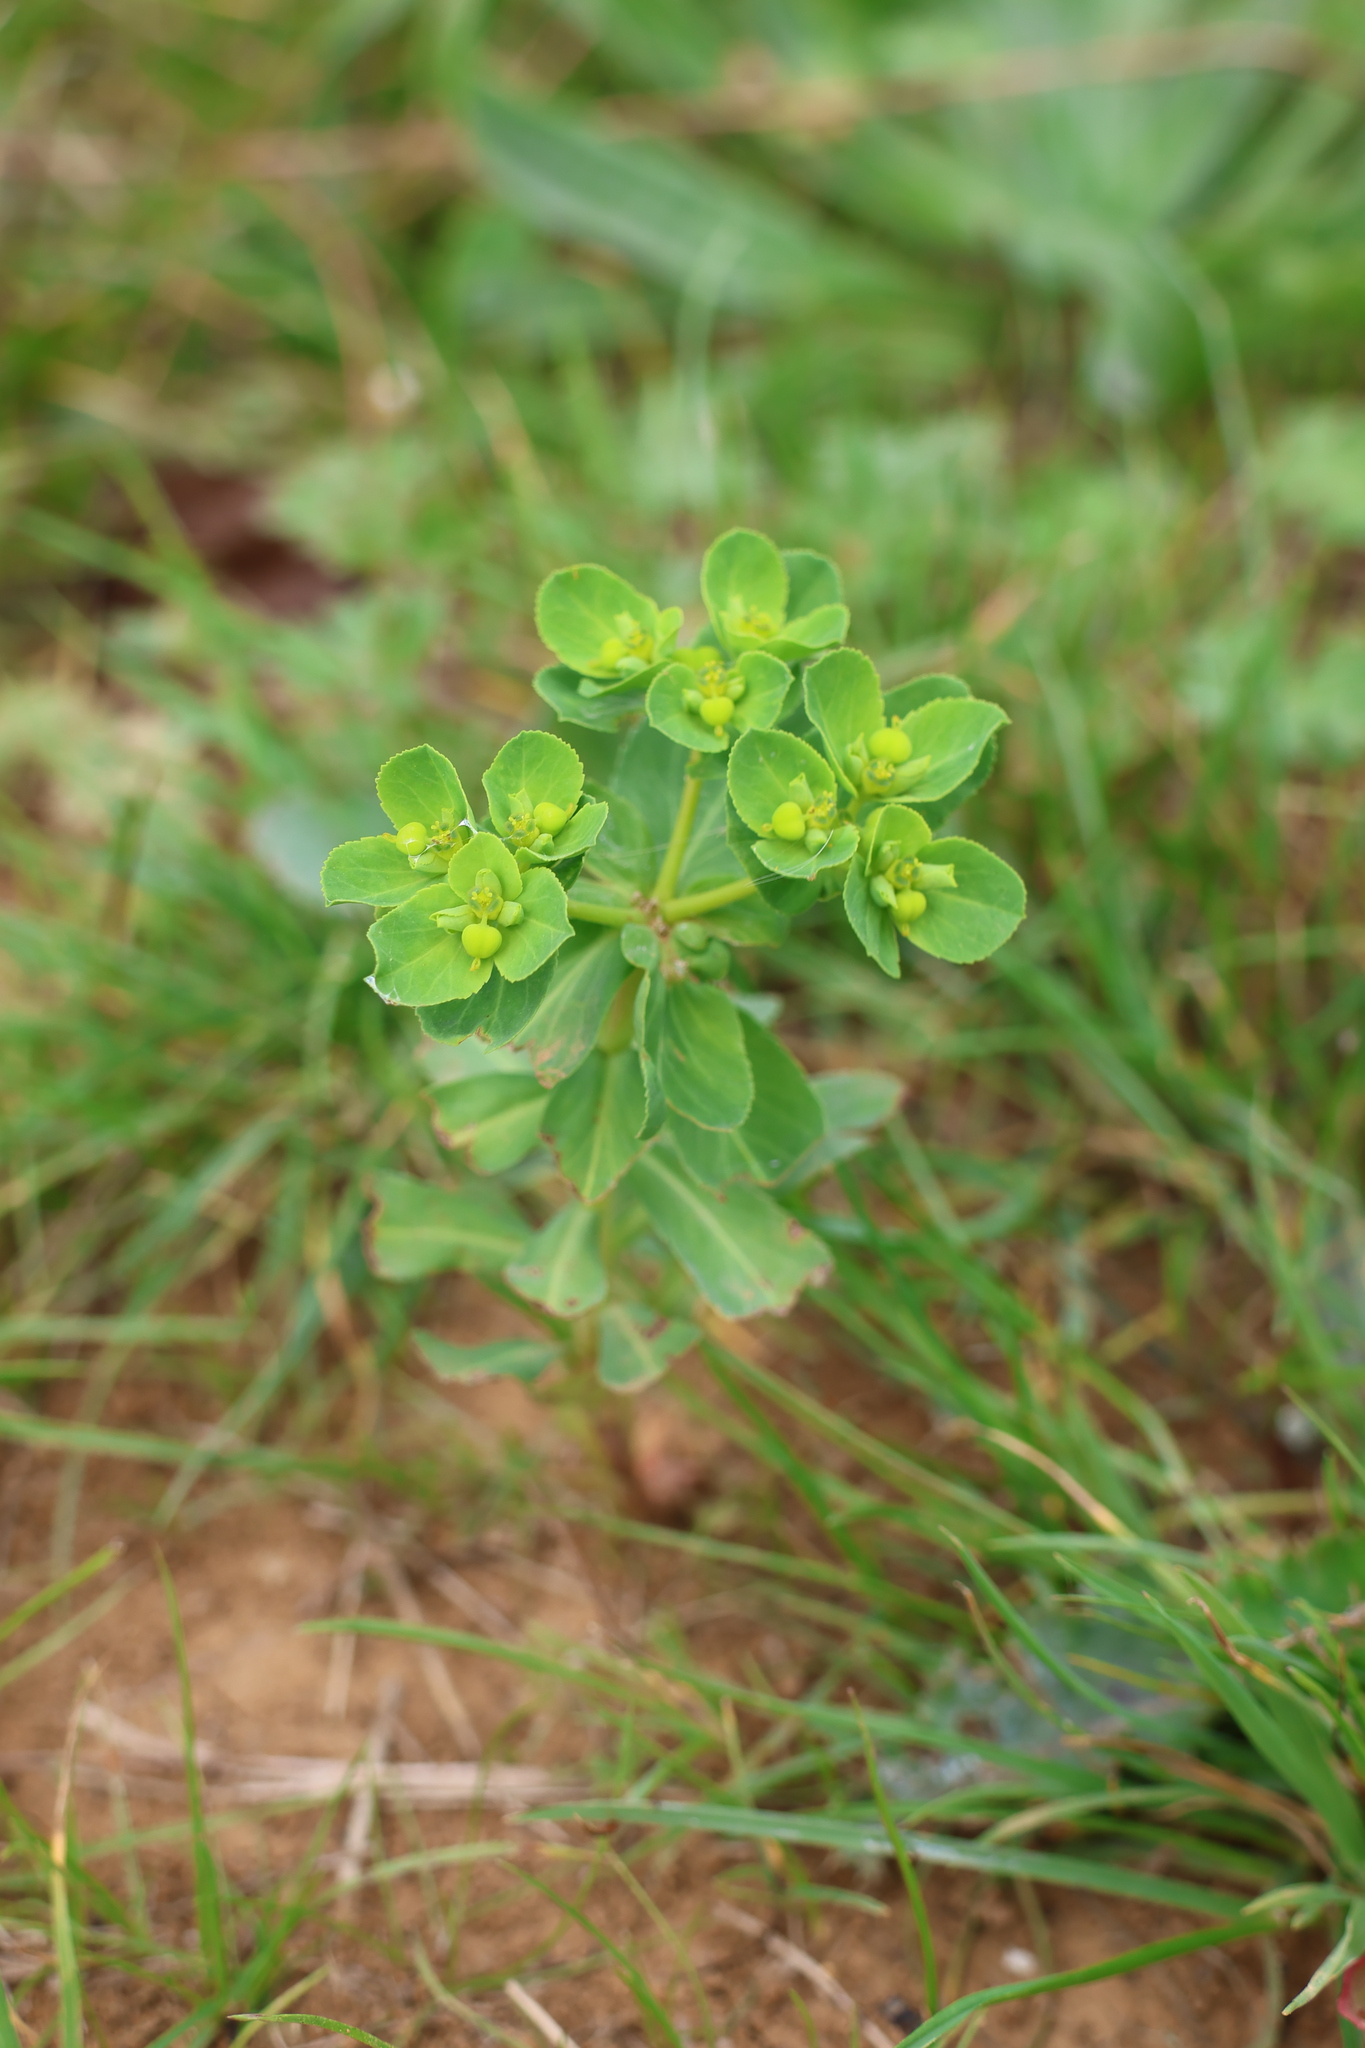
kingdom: Plantae
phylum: Tracheophyta
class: Magnoliopsida
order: Malpighiales
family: Euphorbiaceae
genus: Euphorbia
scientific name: Euphorbia helioscopia
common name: Sun spurge
